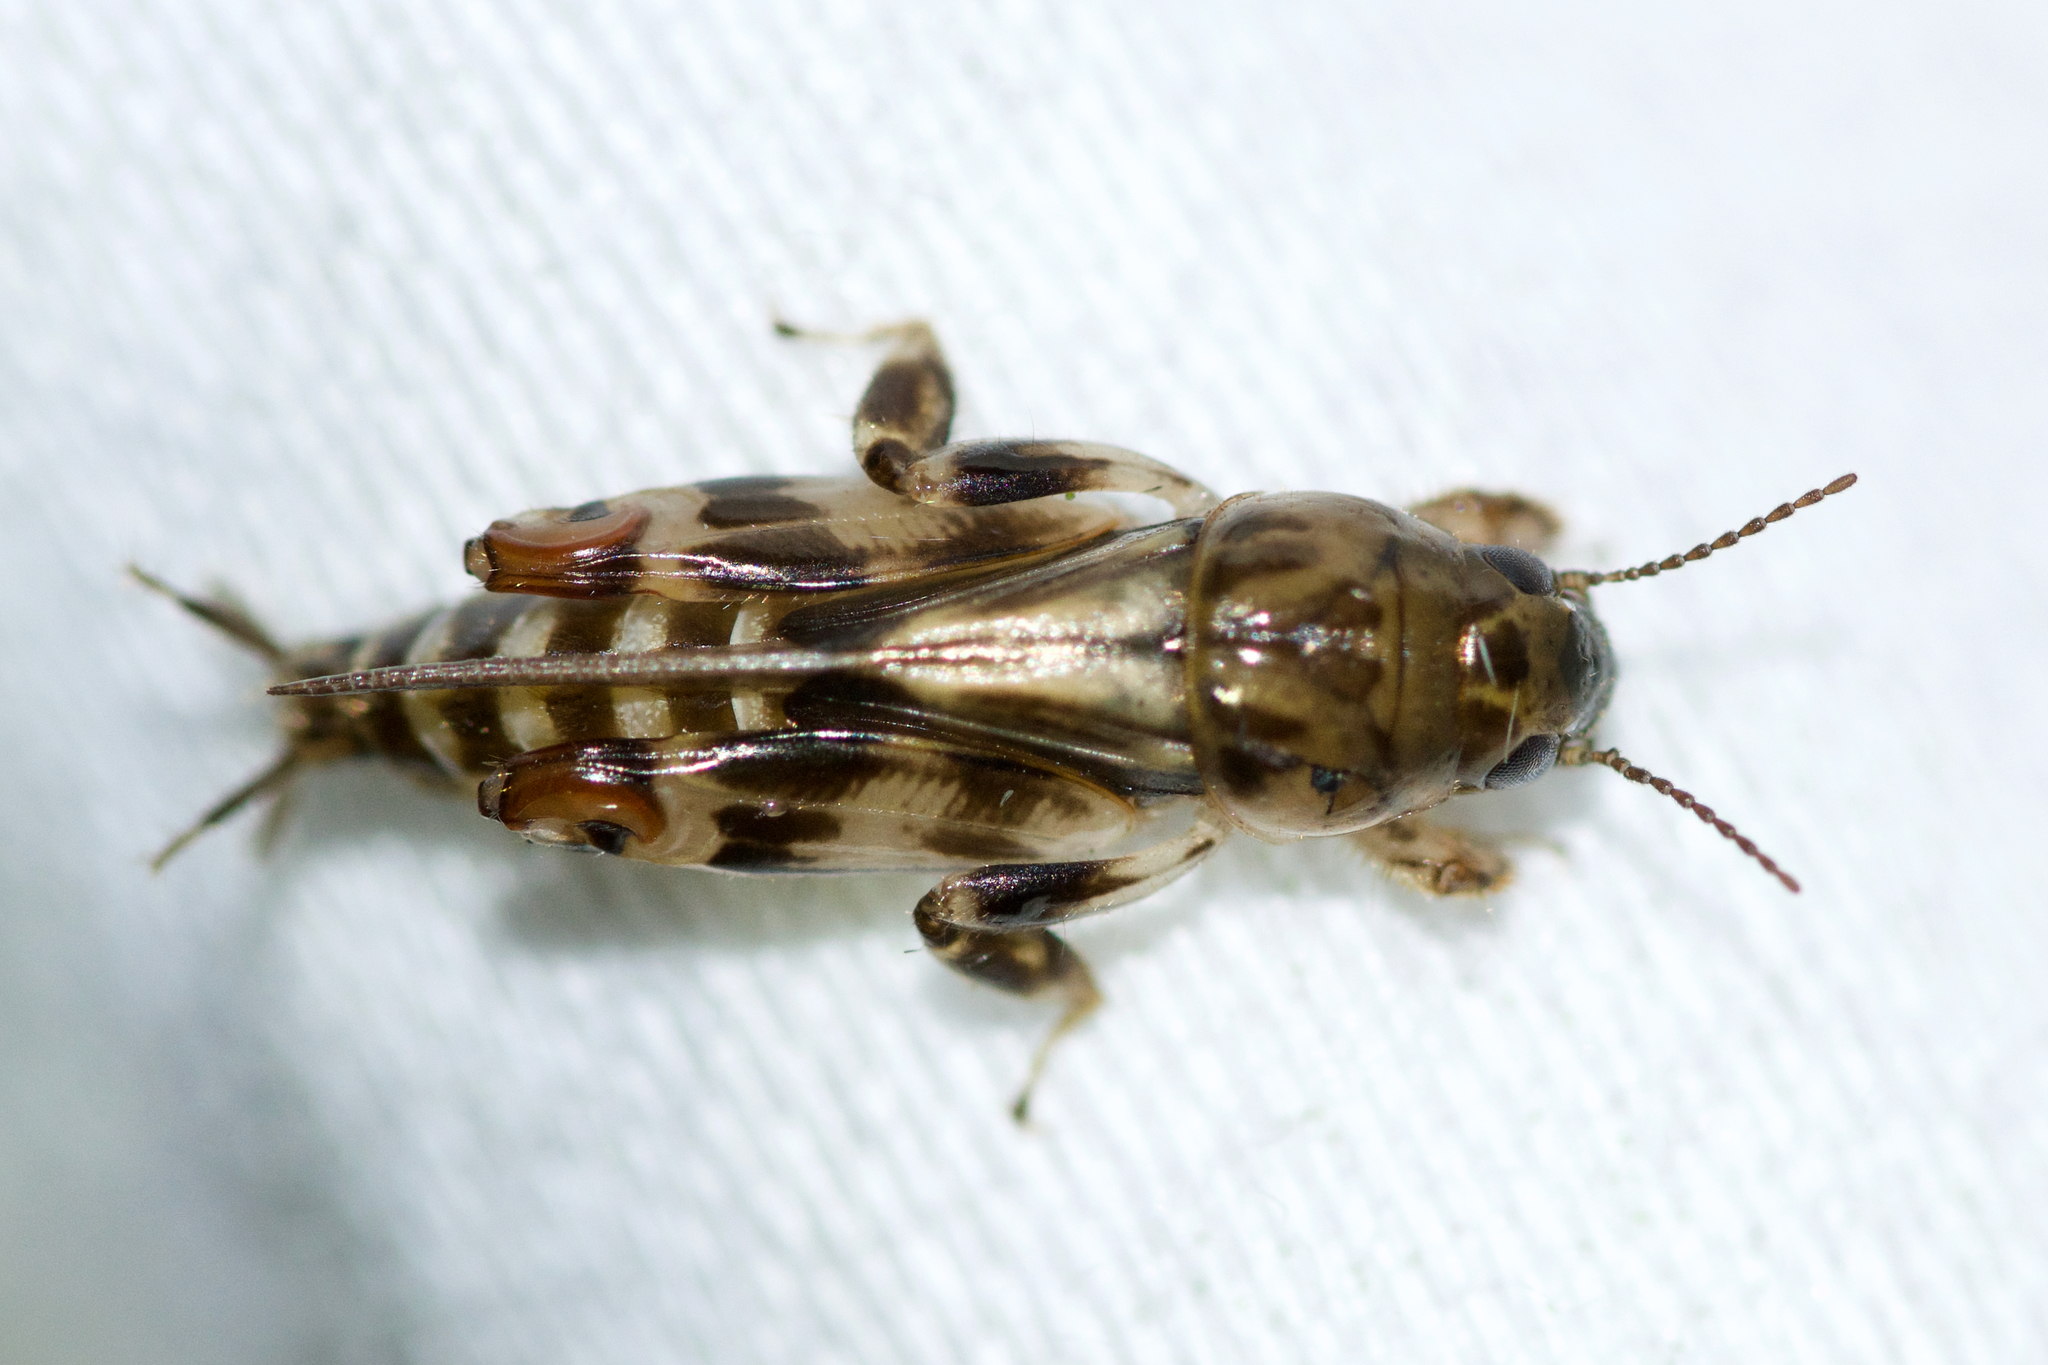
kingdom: Animalia
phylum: Arthropoda
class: Insecta
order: Orthoptera
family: Tridactylidae
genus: Neotridactylus
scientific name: Neotridactylus apicialis
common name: Larger pygmy locust
